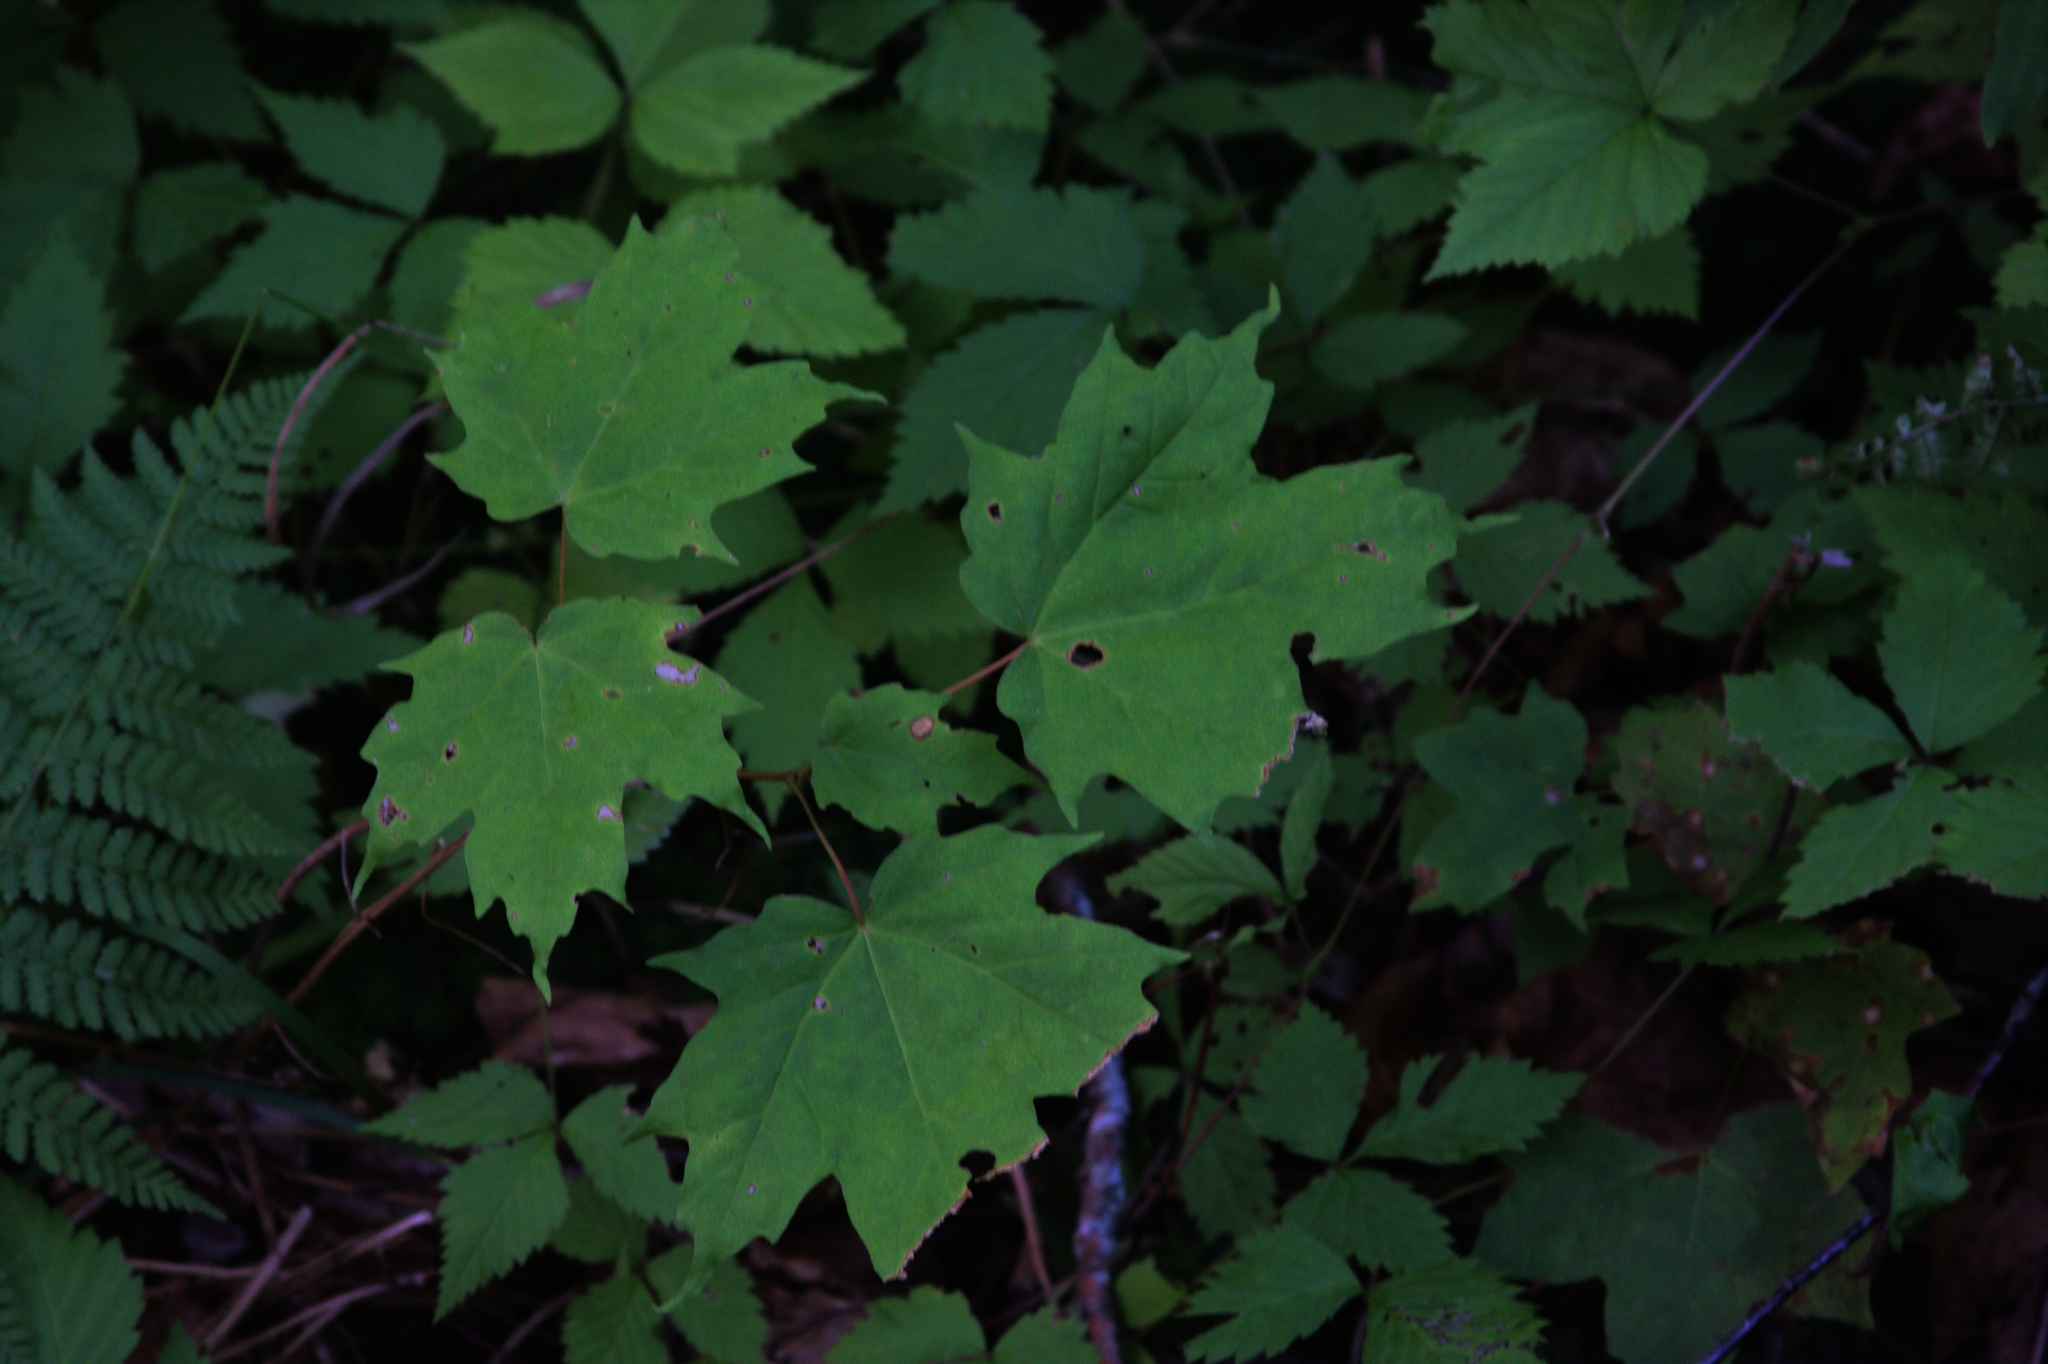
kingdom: Plantae
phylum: Tracheophyta
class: Magnoliopsida
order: Sapindales
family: Sapindaceae
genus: Acer
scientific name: Acer saccharum
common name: Sugar maple
